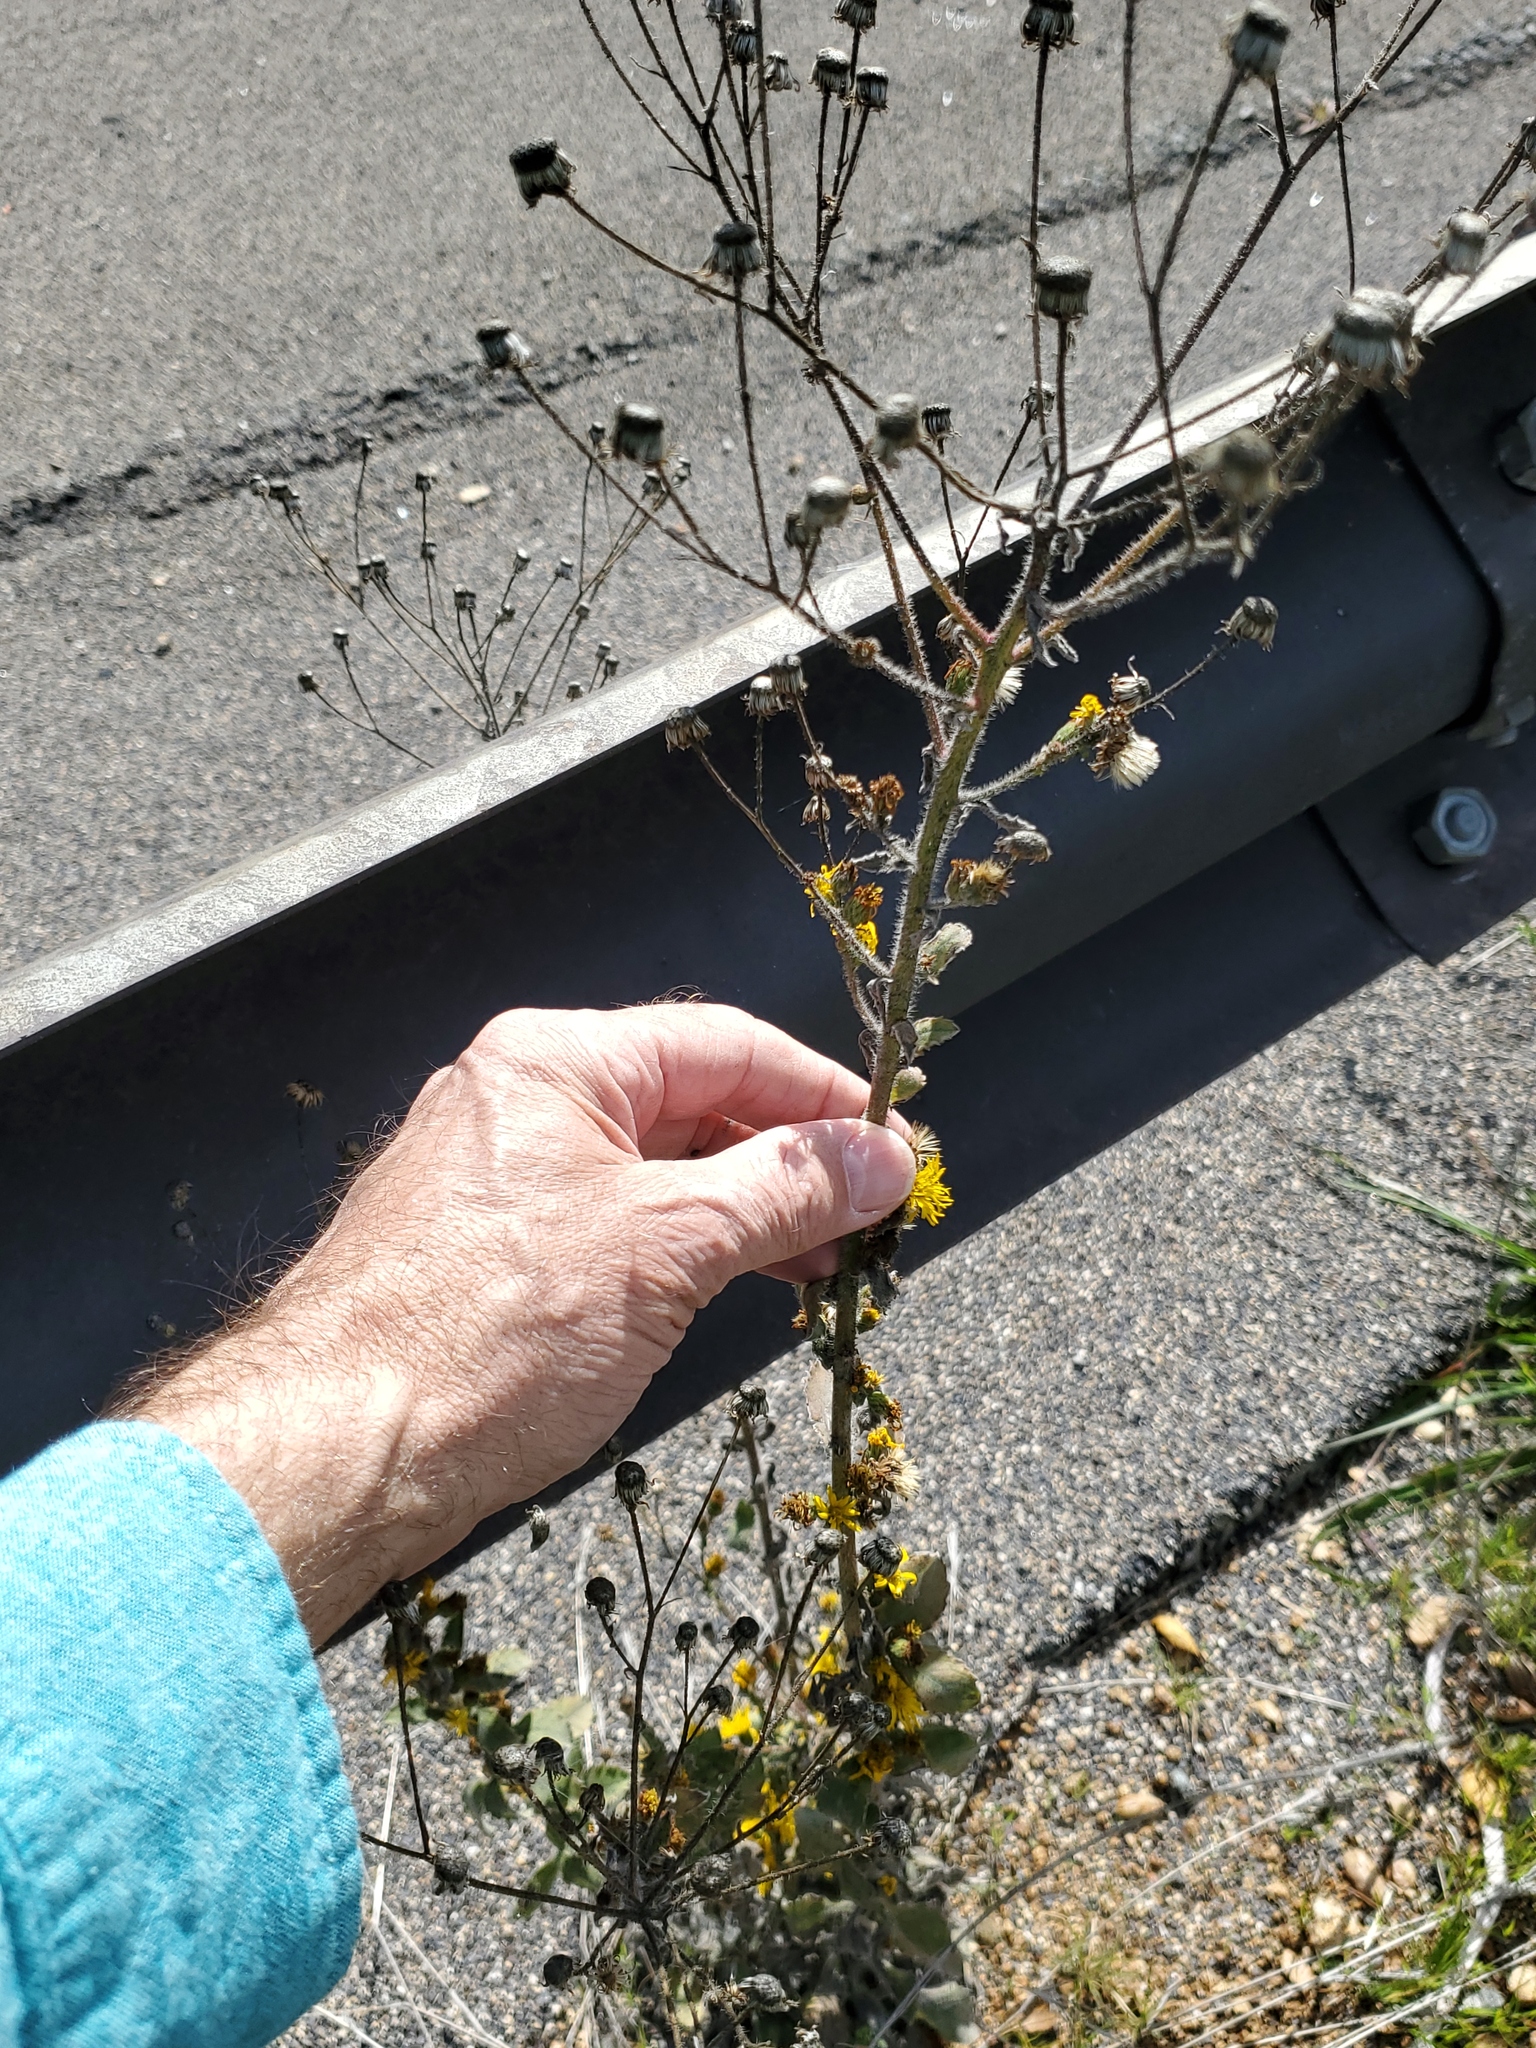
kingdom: Plantae
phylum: Tracheophyta
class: Magnoliopsida
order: Asterales
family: Asteraceae
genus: Heterotheca
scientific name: Heterotheca grandiflora
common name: Telegraphweed
